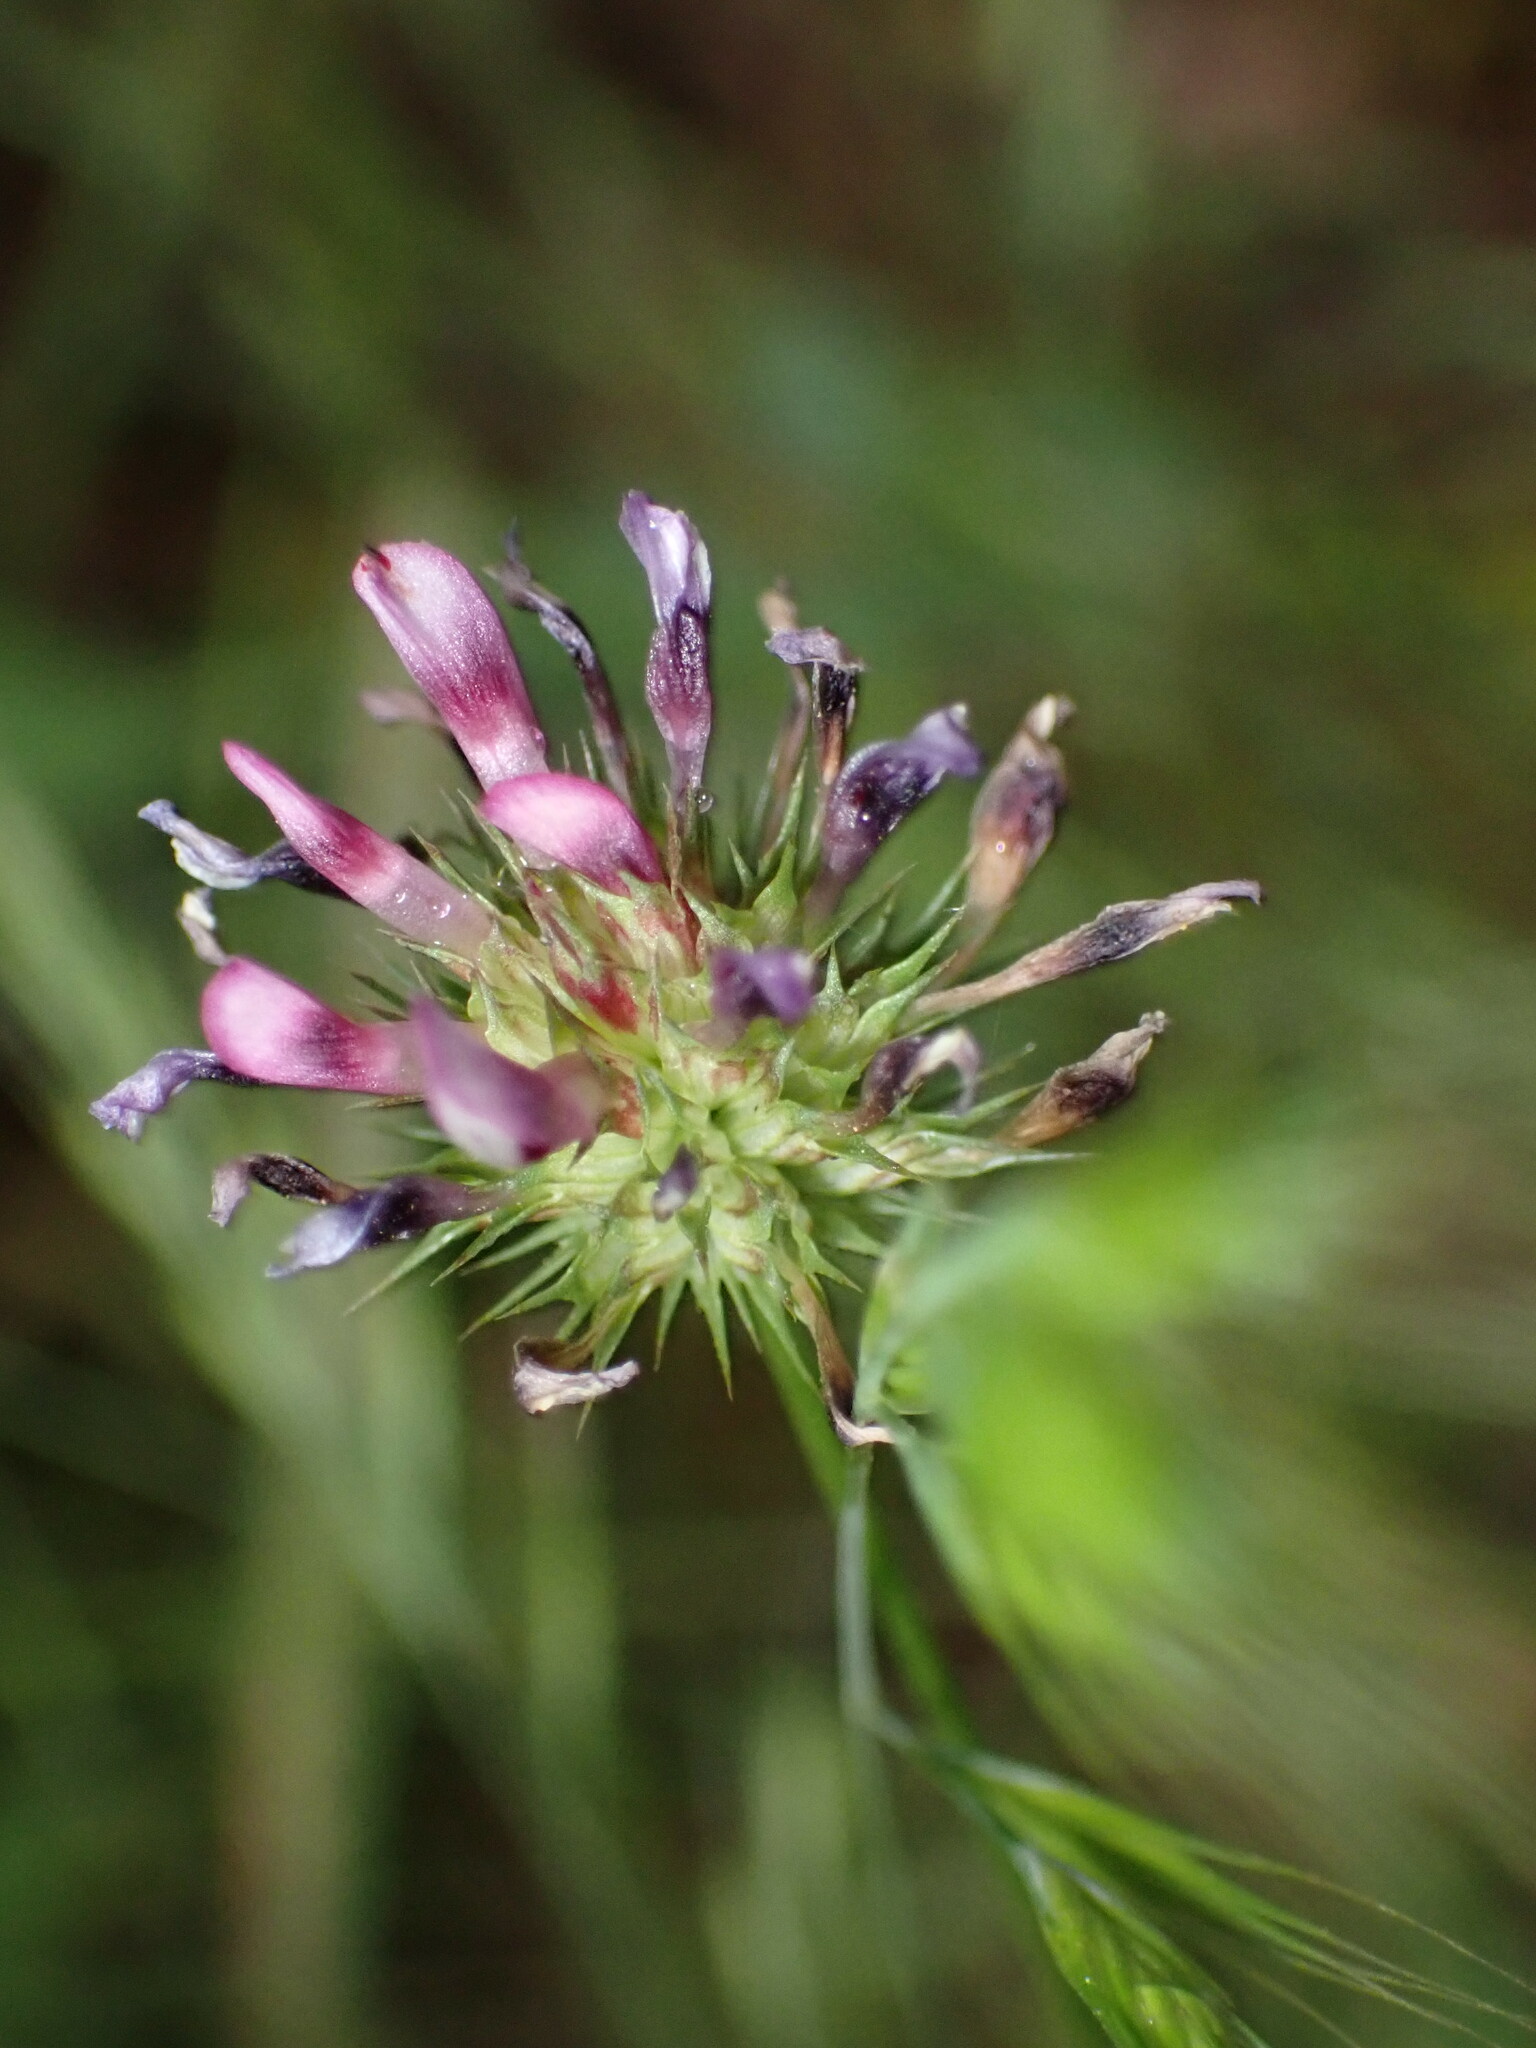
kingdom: Plantae
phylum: Tracheophyta
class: Magnoliopsida
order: Fabales
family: Fabaceae
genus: Trifolium
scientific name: Trifolium willdenovii
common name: Tomcat clover
